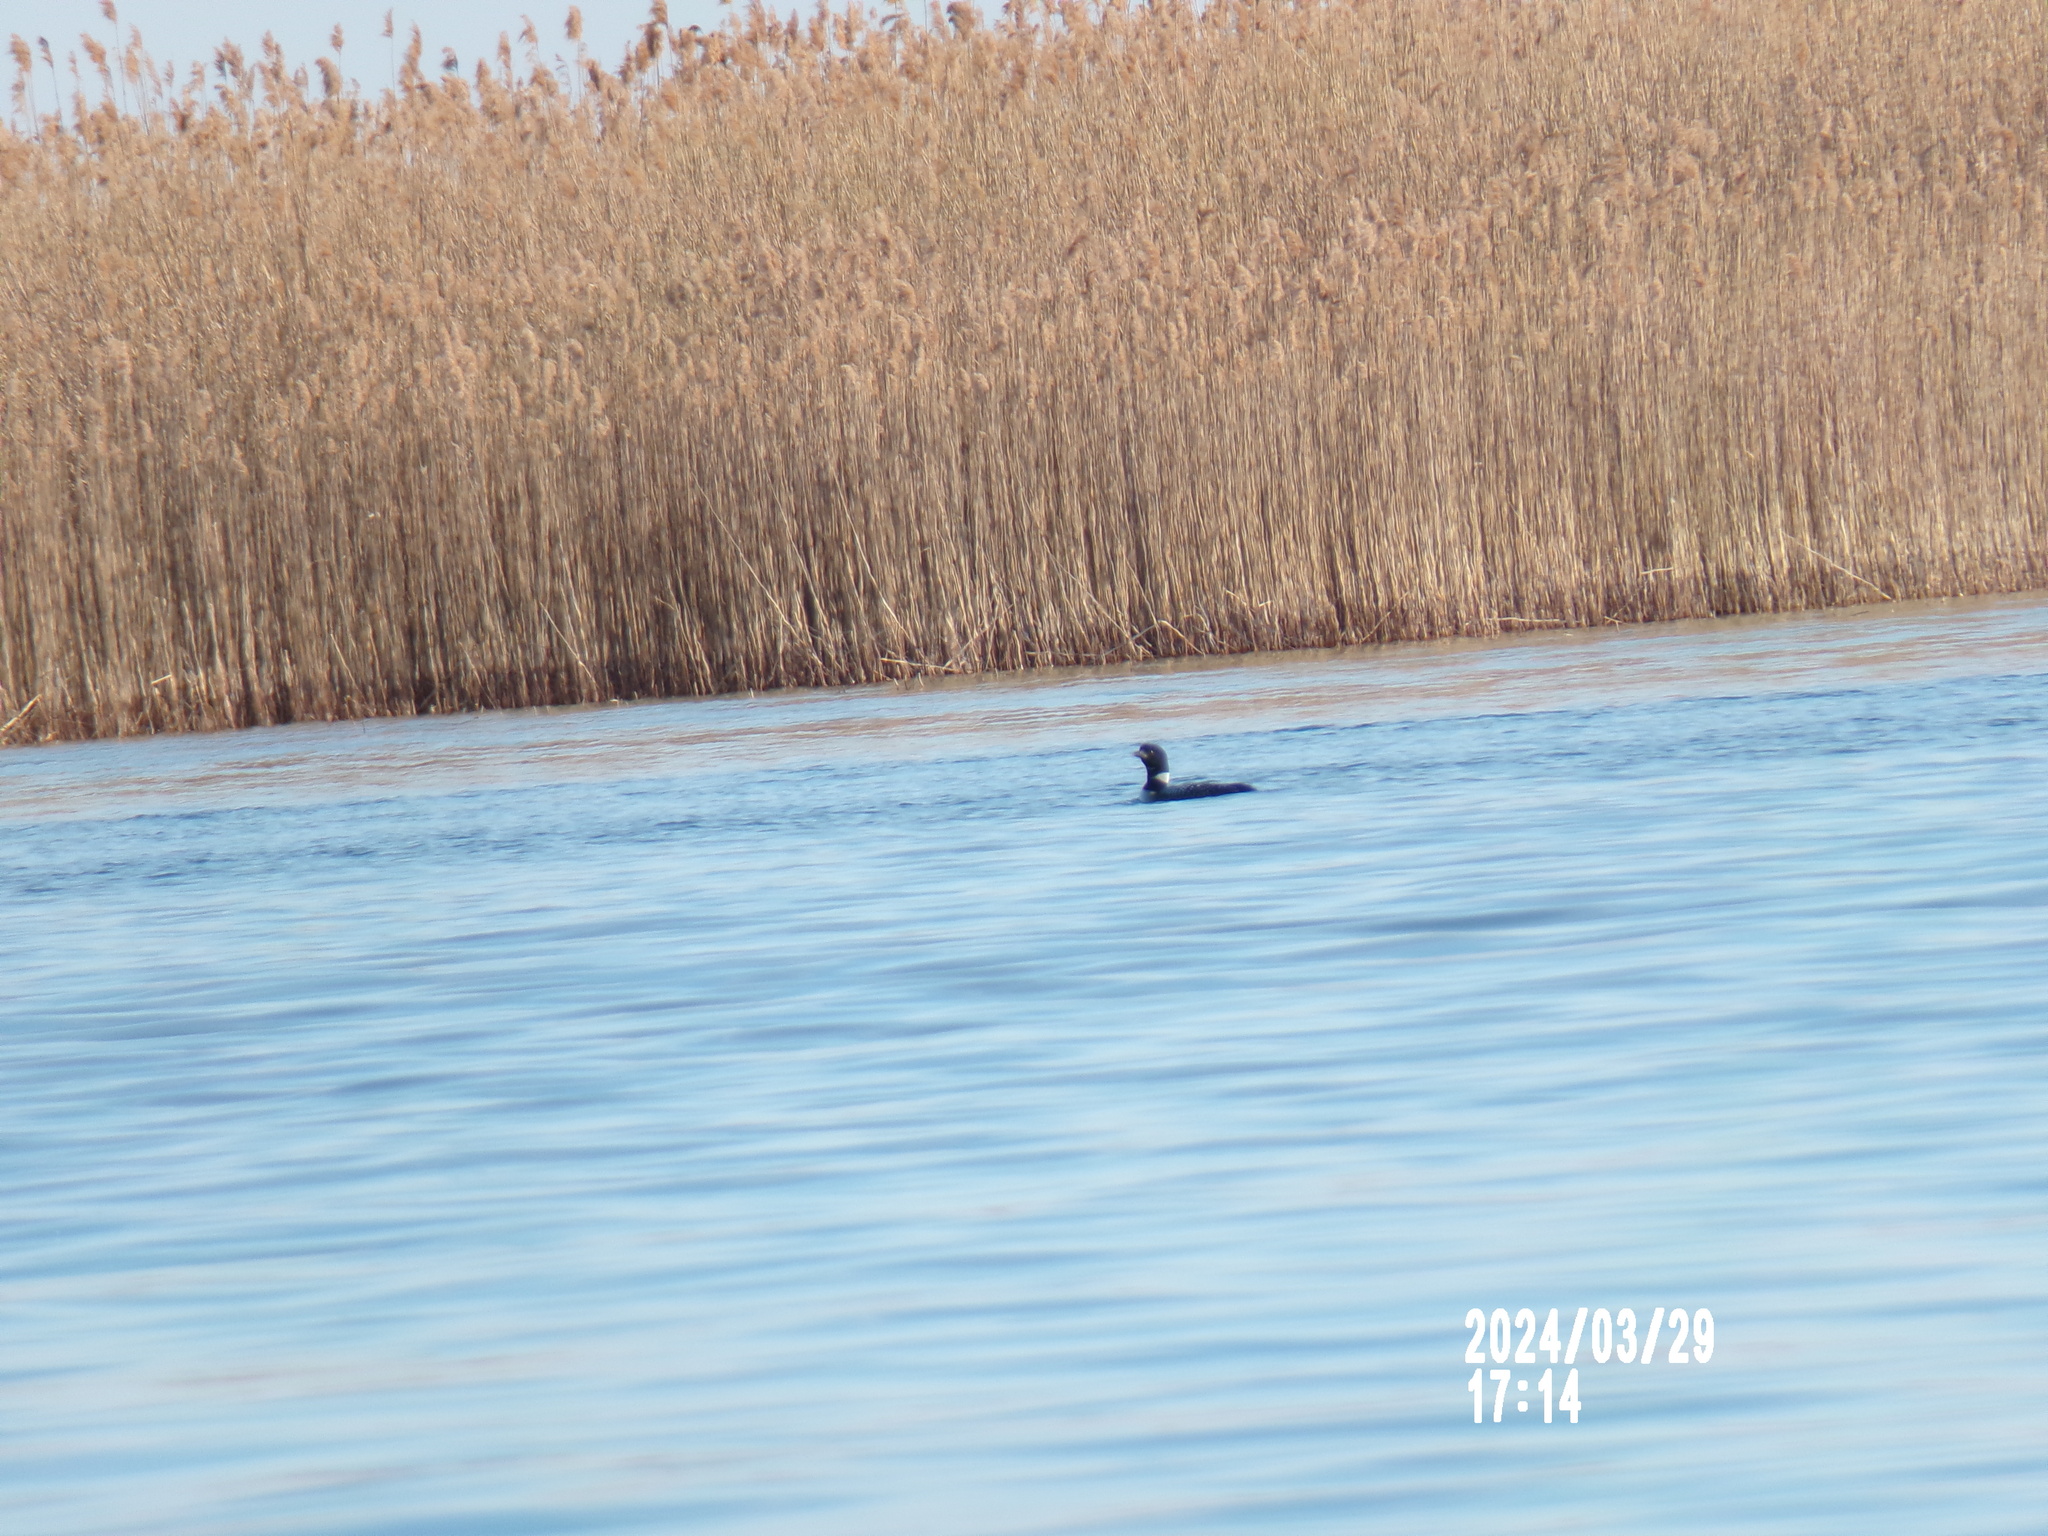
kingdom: Animalia
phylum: Chordata
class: Aves
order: Gaviiformes
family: Gaviidae
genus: Gavia
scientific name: Gavia immer
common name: Common loon
